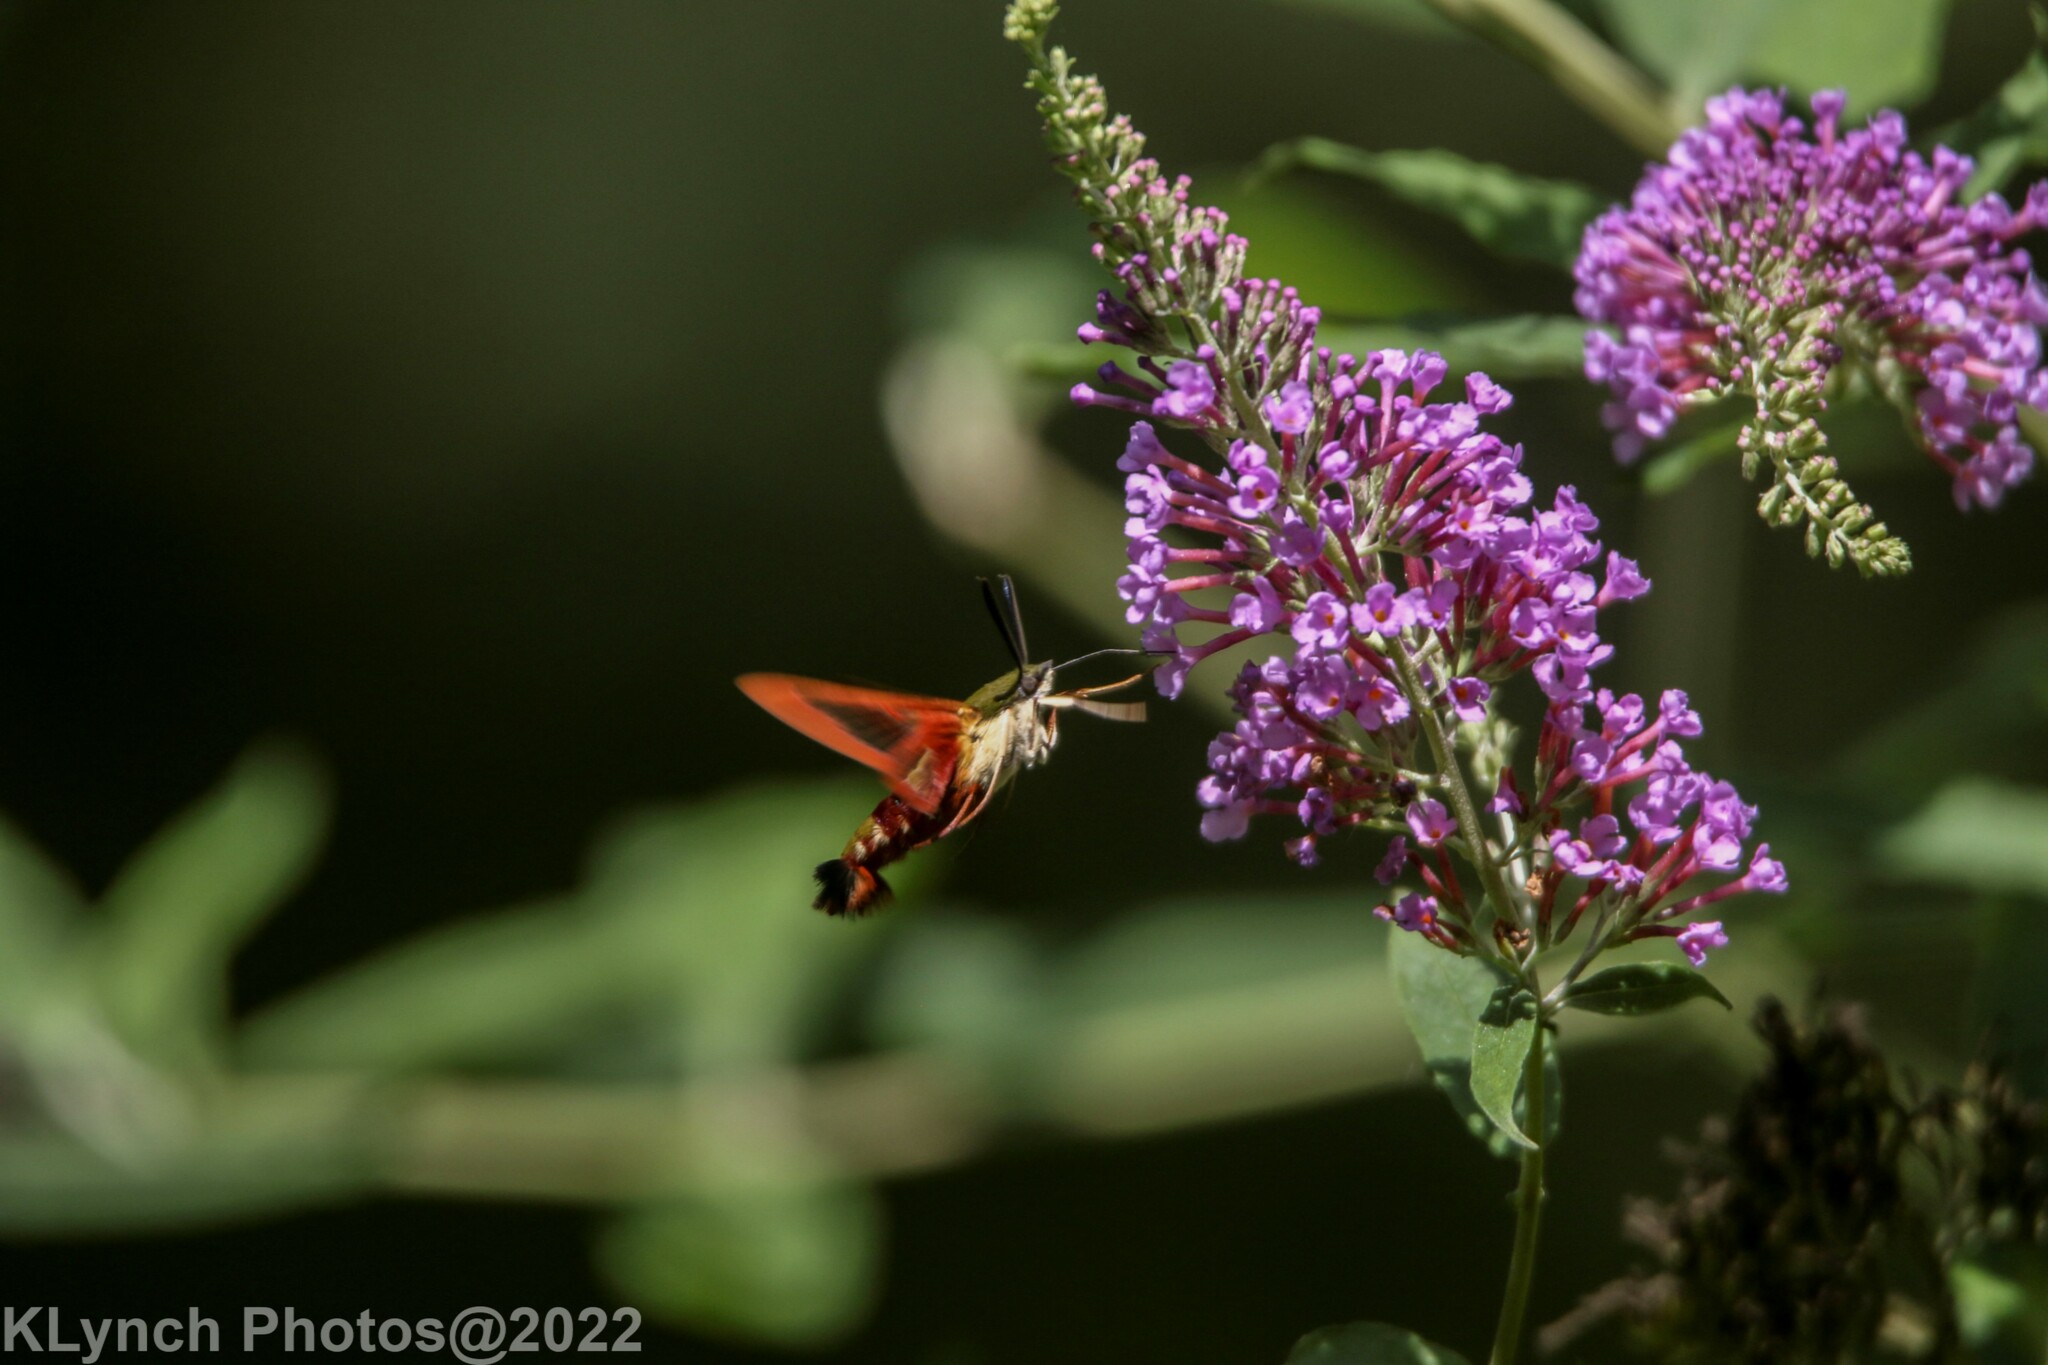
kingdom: Animalia
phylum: Arthropoda
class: Insecta
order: Lepidoptera
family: Sphingidae
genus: Hemaris
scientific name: Hemaris thysbe
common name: Common clear-wing
